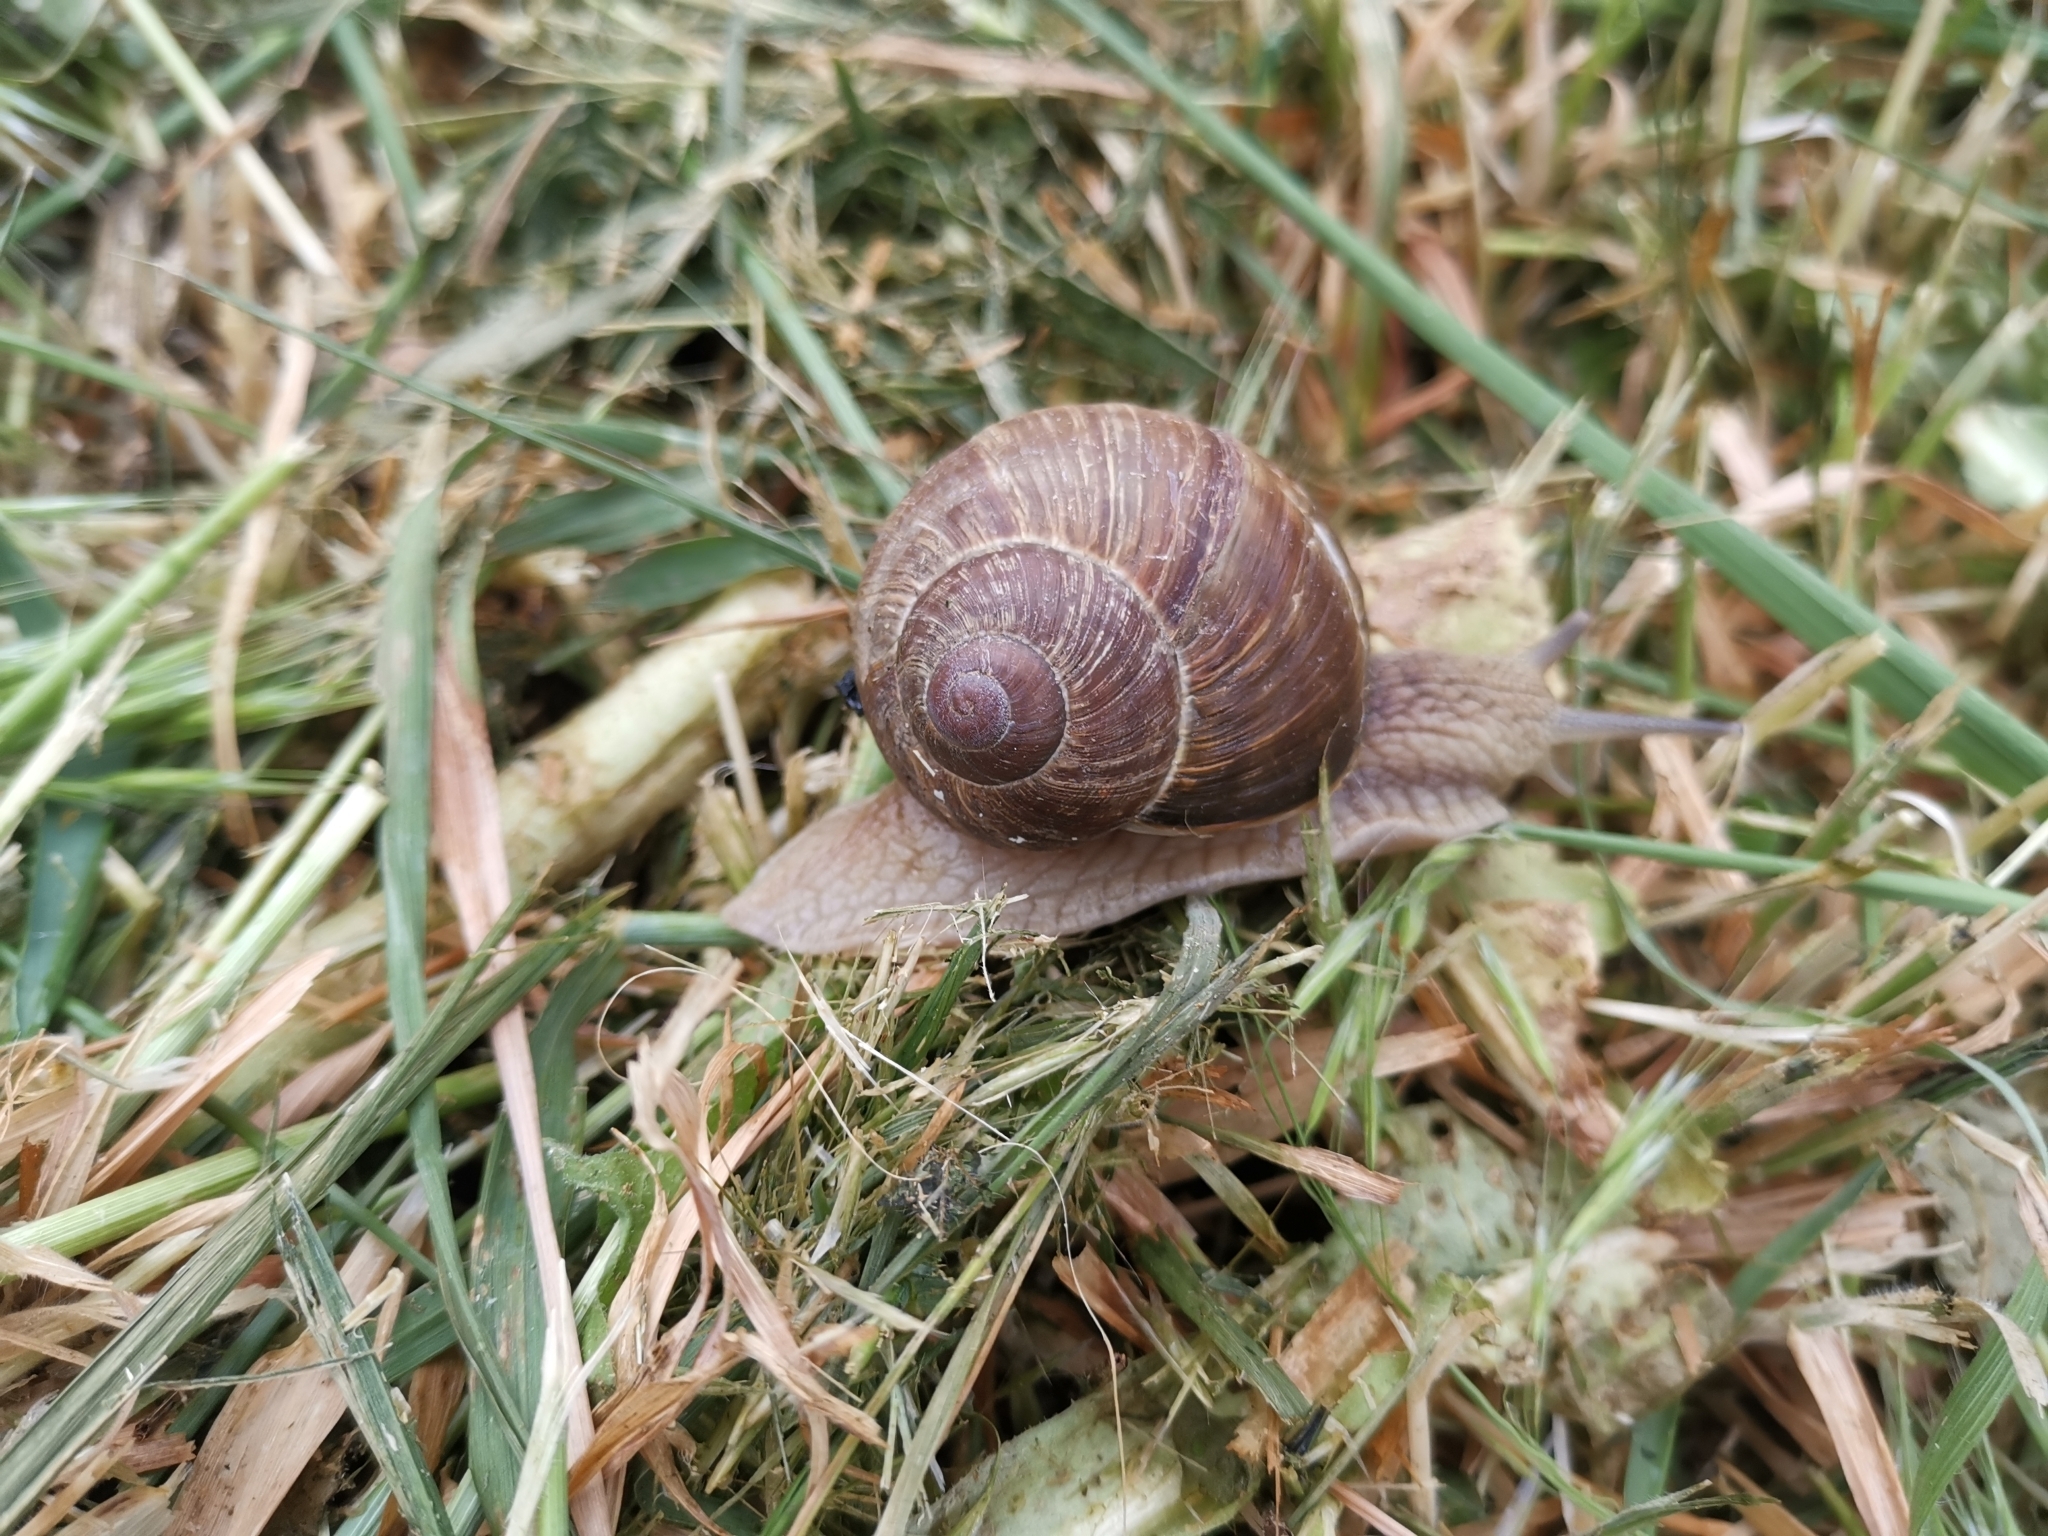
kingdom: Animalia
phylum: Mollusca
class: Gastropoda
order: Stylommatophora
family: Helicidae
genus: Helix
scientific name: Helix pomatia
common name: Roman snail
